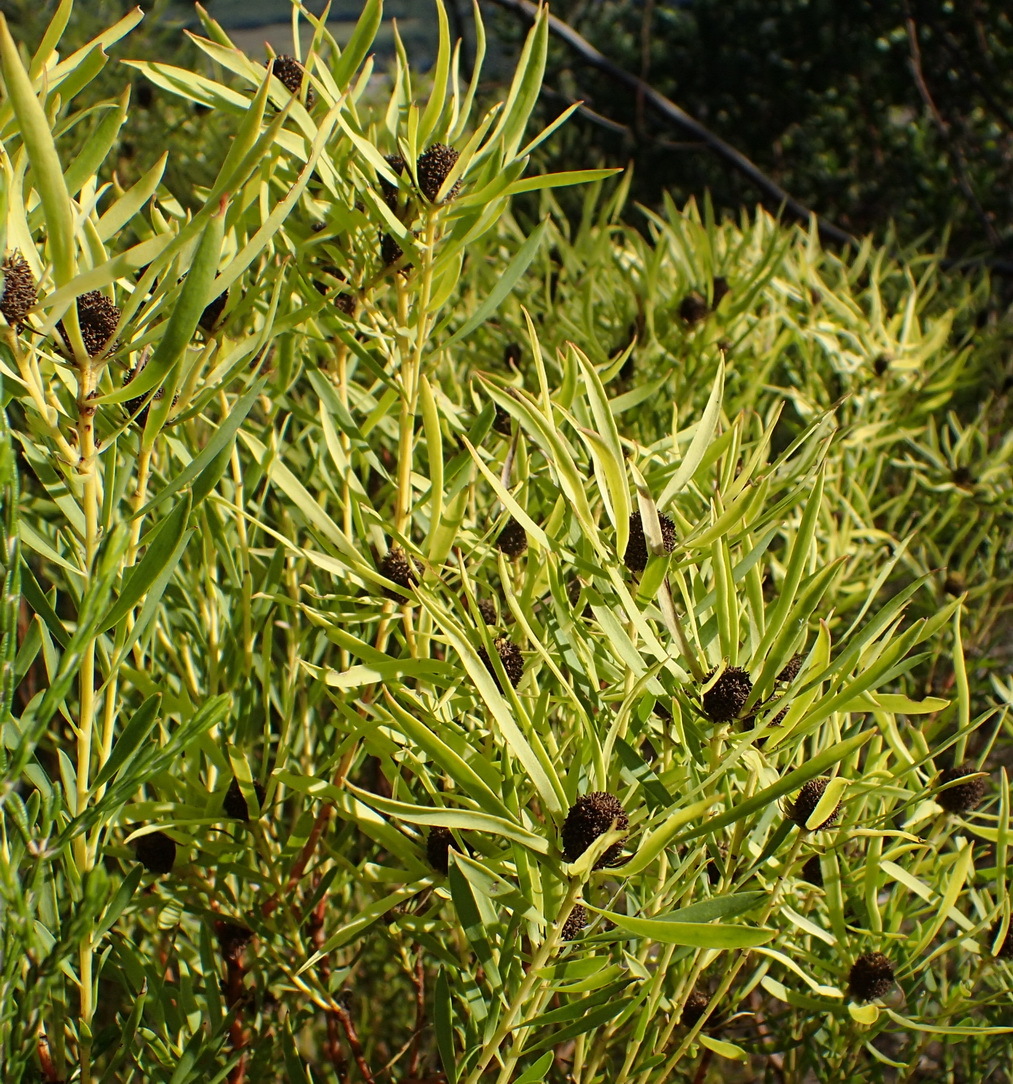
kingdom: Plantae
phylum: Tracheophyta
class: Magnoliopsida
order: Proteales
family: Proteaceae
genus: Leucadendron
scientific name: Leucadendron salignum
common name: Common sunshine conebush
